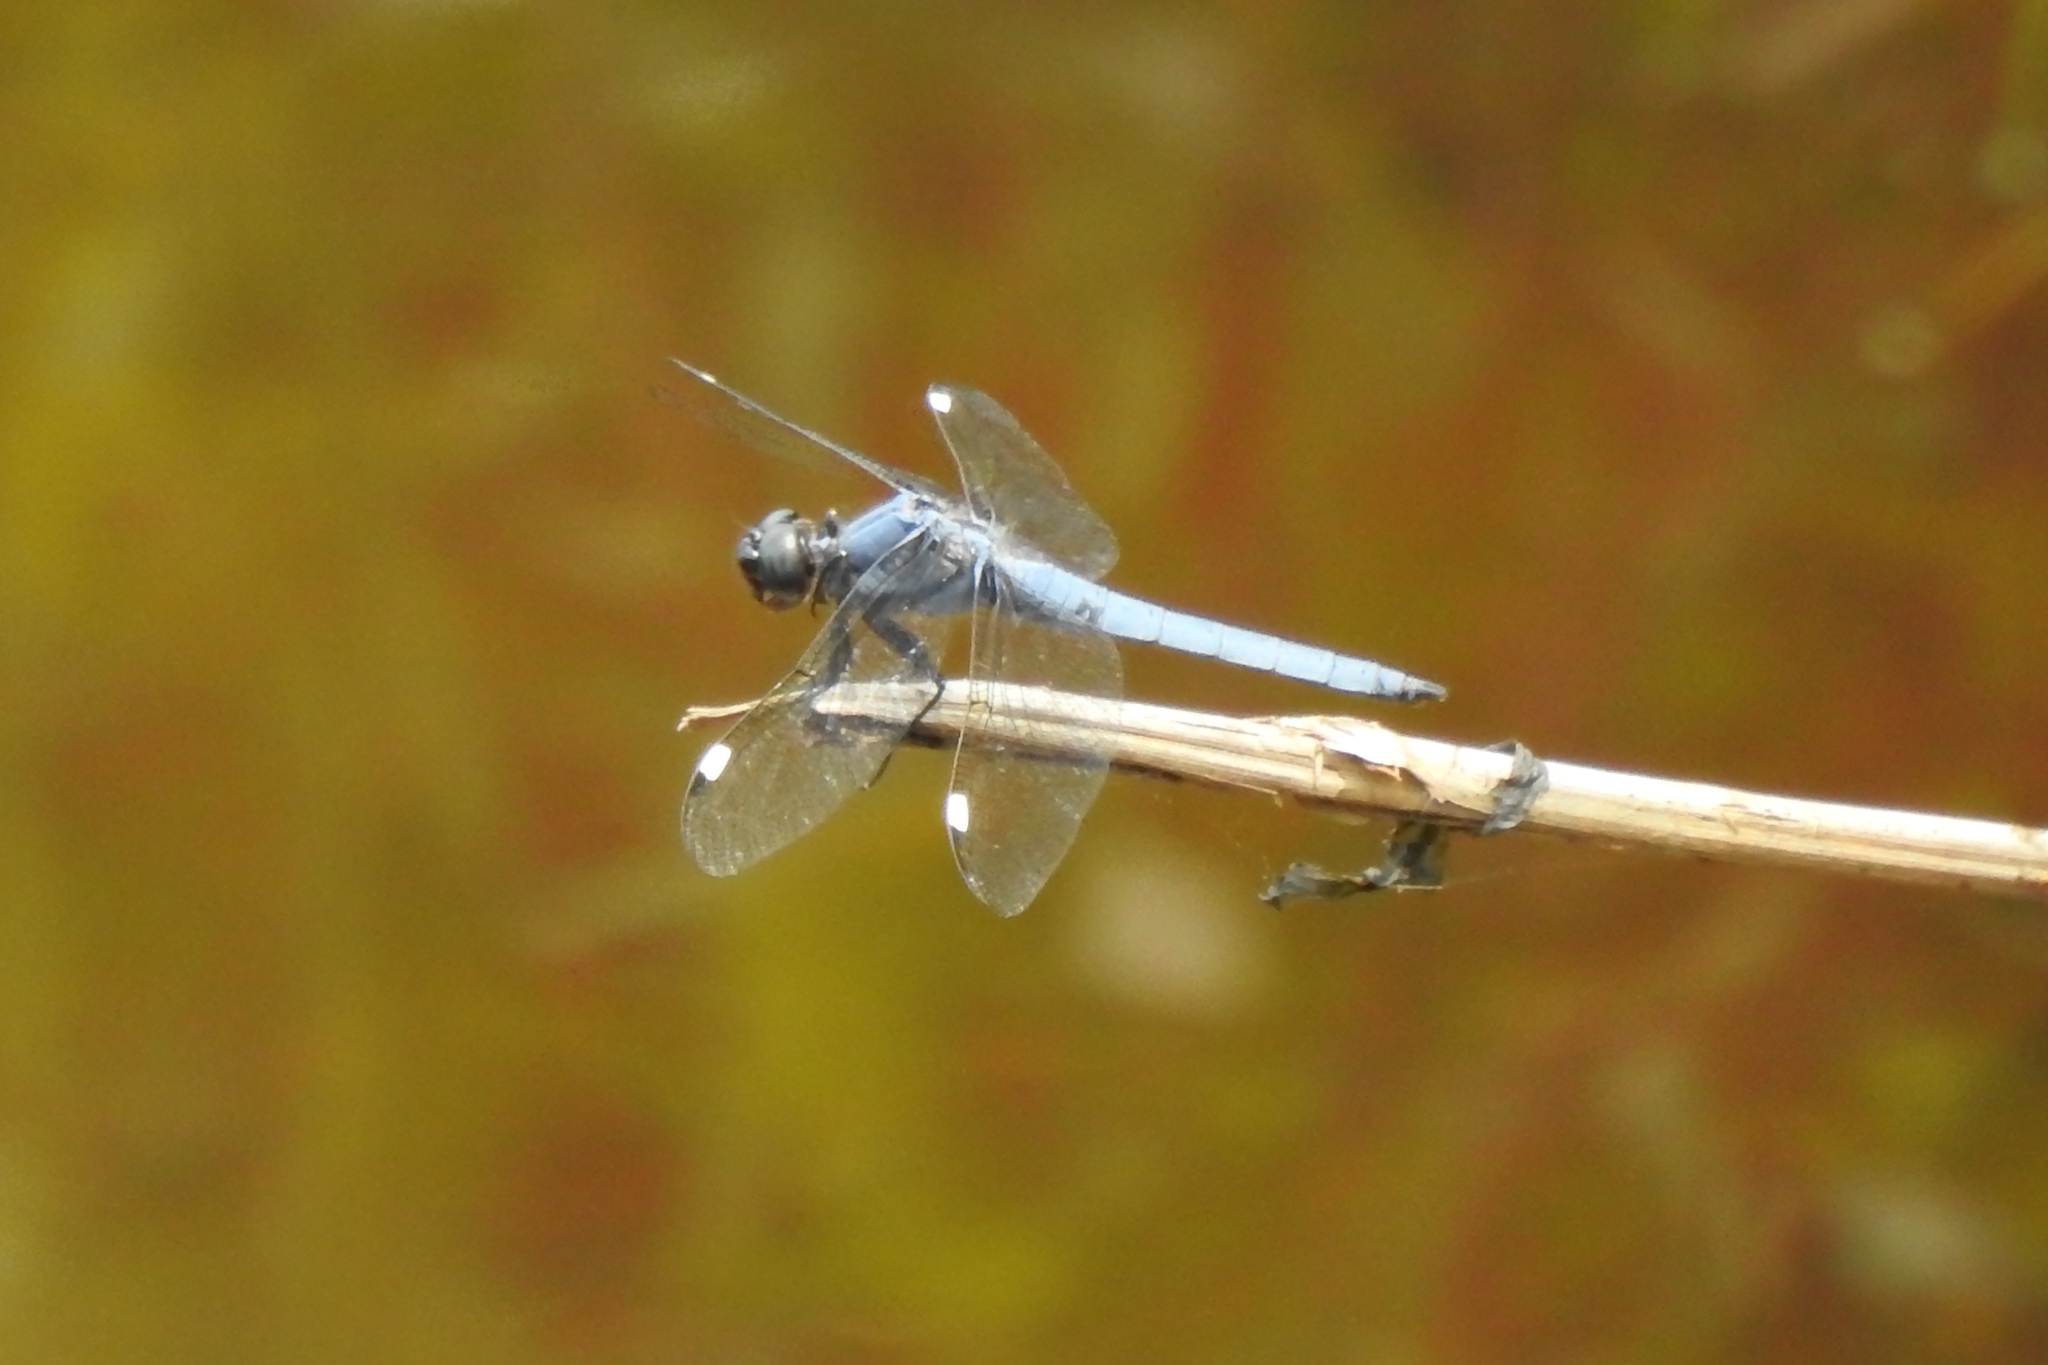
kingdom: Animalia
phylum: Arthropoda
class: Insecta
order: Odonata
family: Libellulidae
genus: Libellula
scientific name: Libellula cyanea
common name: Spangled skimmer
